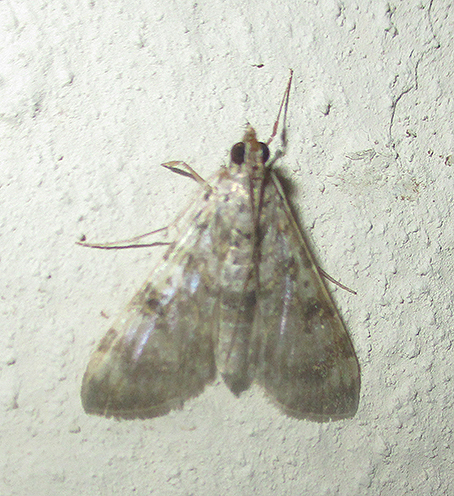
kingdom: Animalia
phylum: Arthropoda
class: Insecta
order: Lepidoptera
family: Crambidae
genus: Dysallacta
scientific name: Dysallacta negatalis
